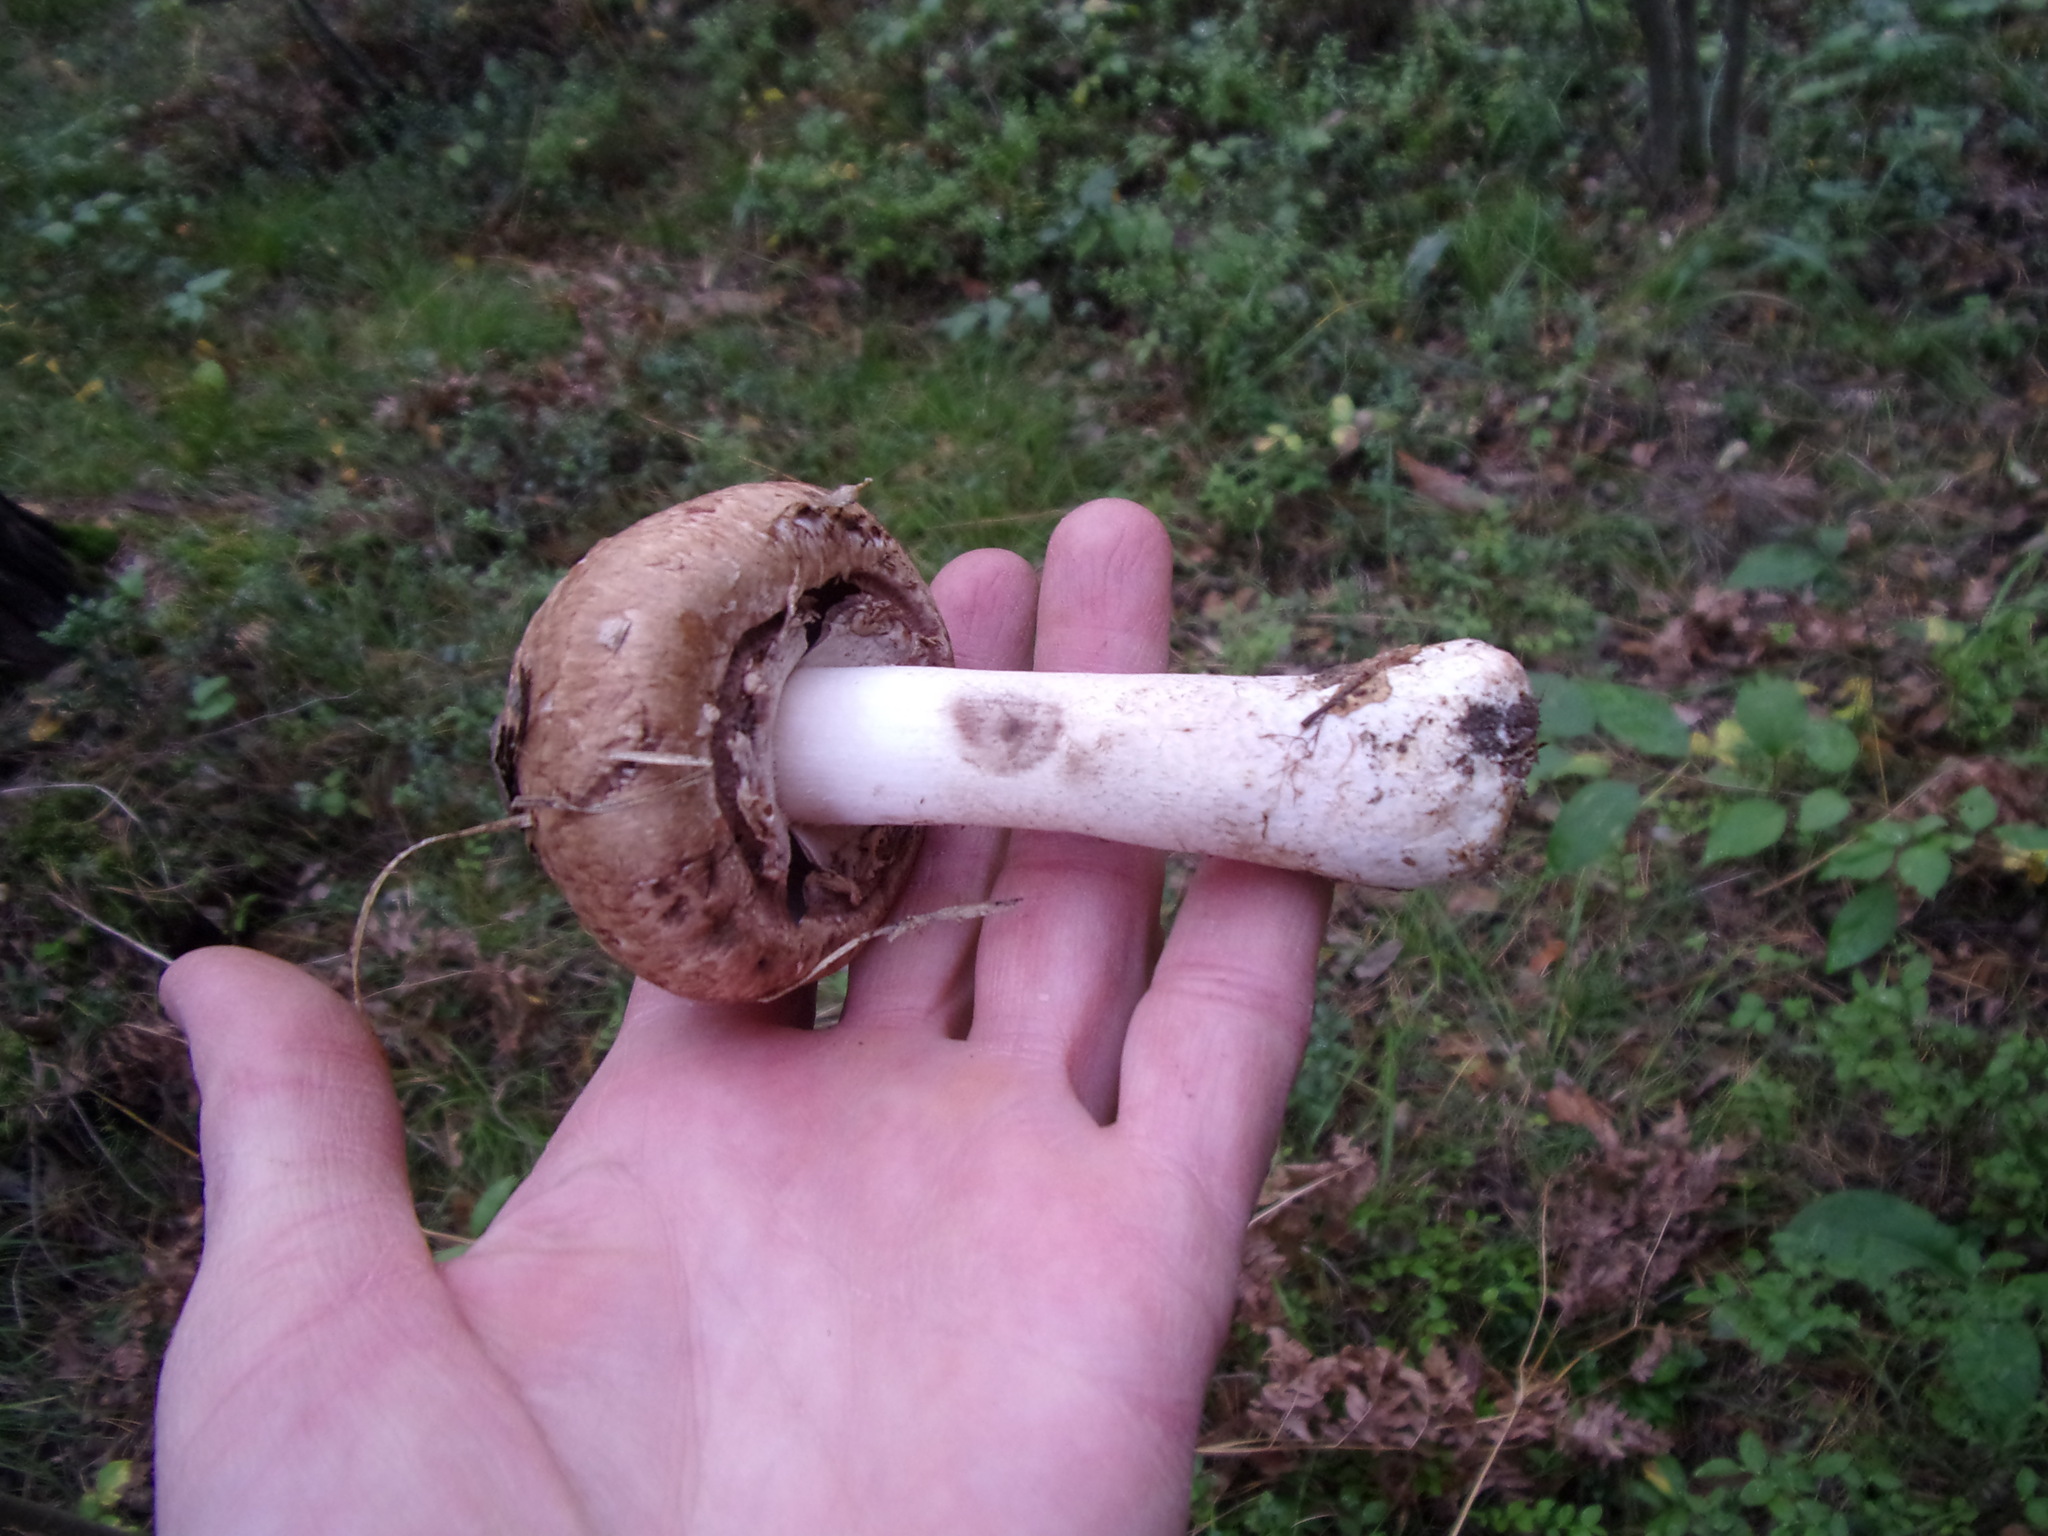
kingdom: Fungi
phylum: Basidiomycota
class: Agaricomycetes
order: Agaricales
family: Agaricaceae
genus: Agaricus
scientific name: Agaricus sylvaticus
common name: Blushing wood mushroom
